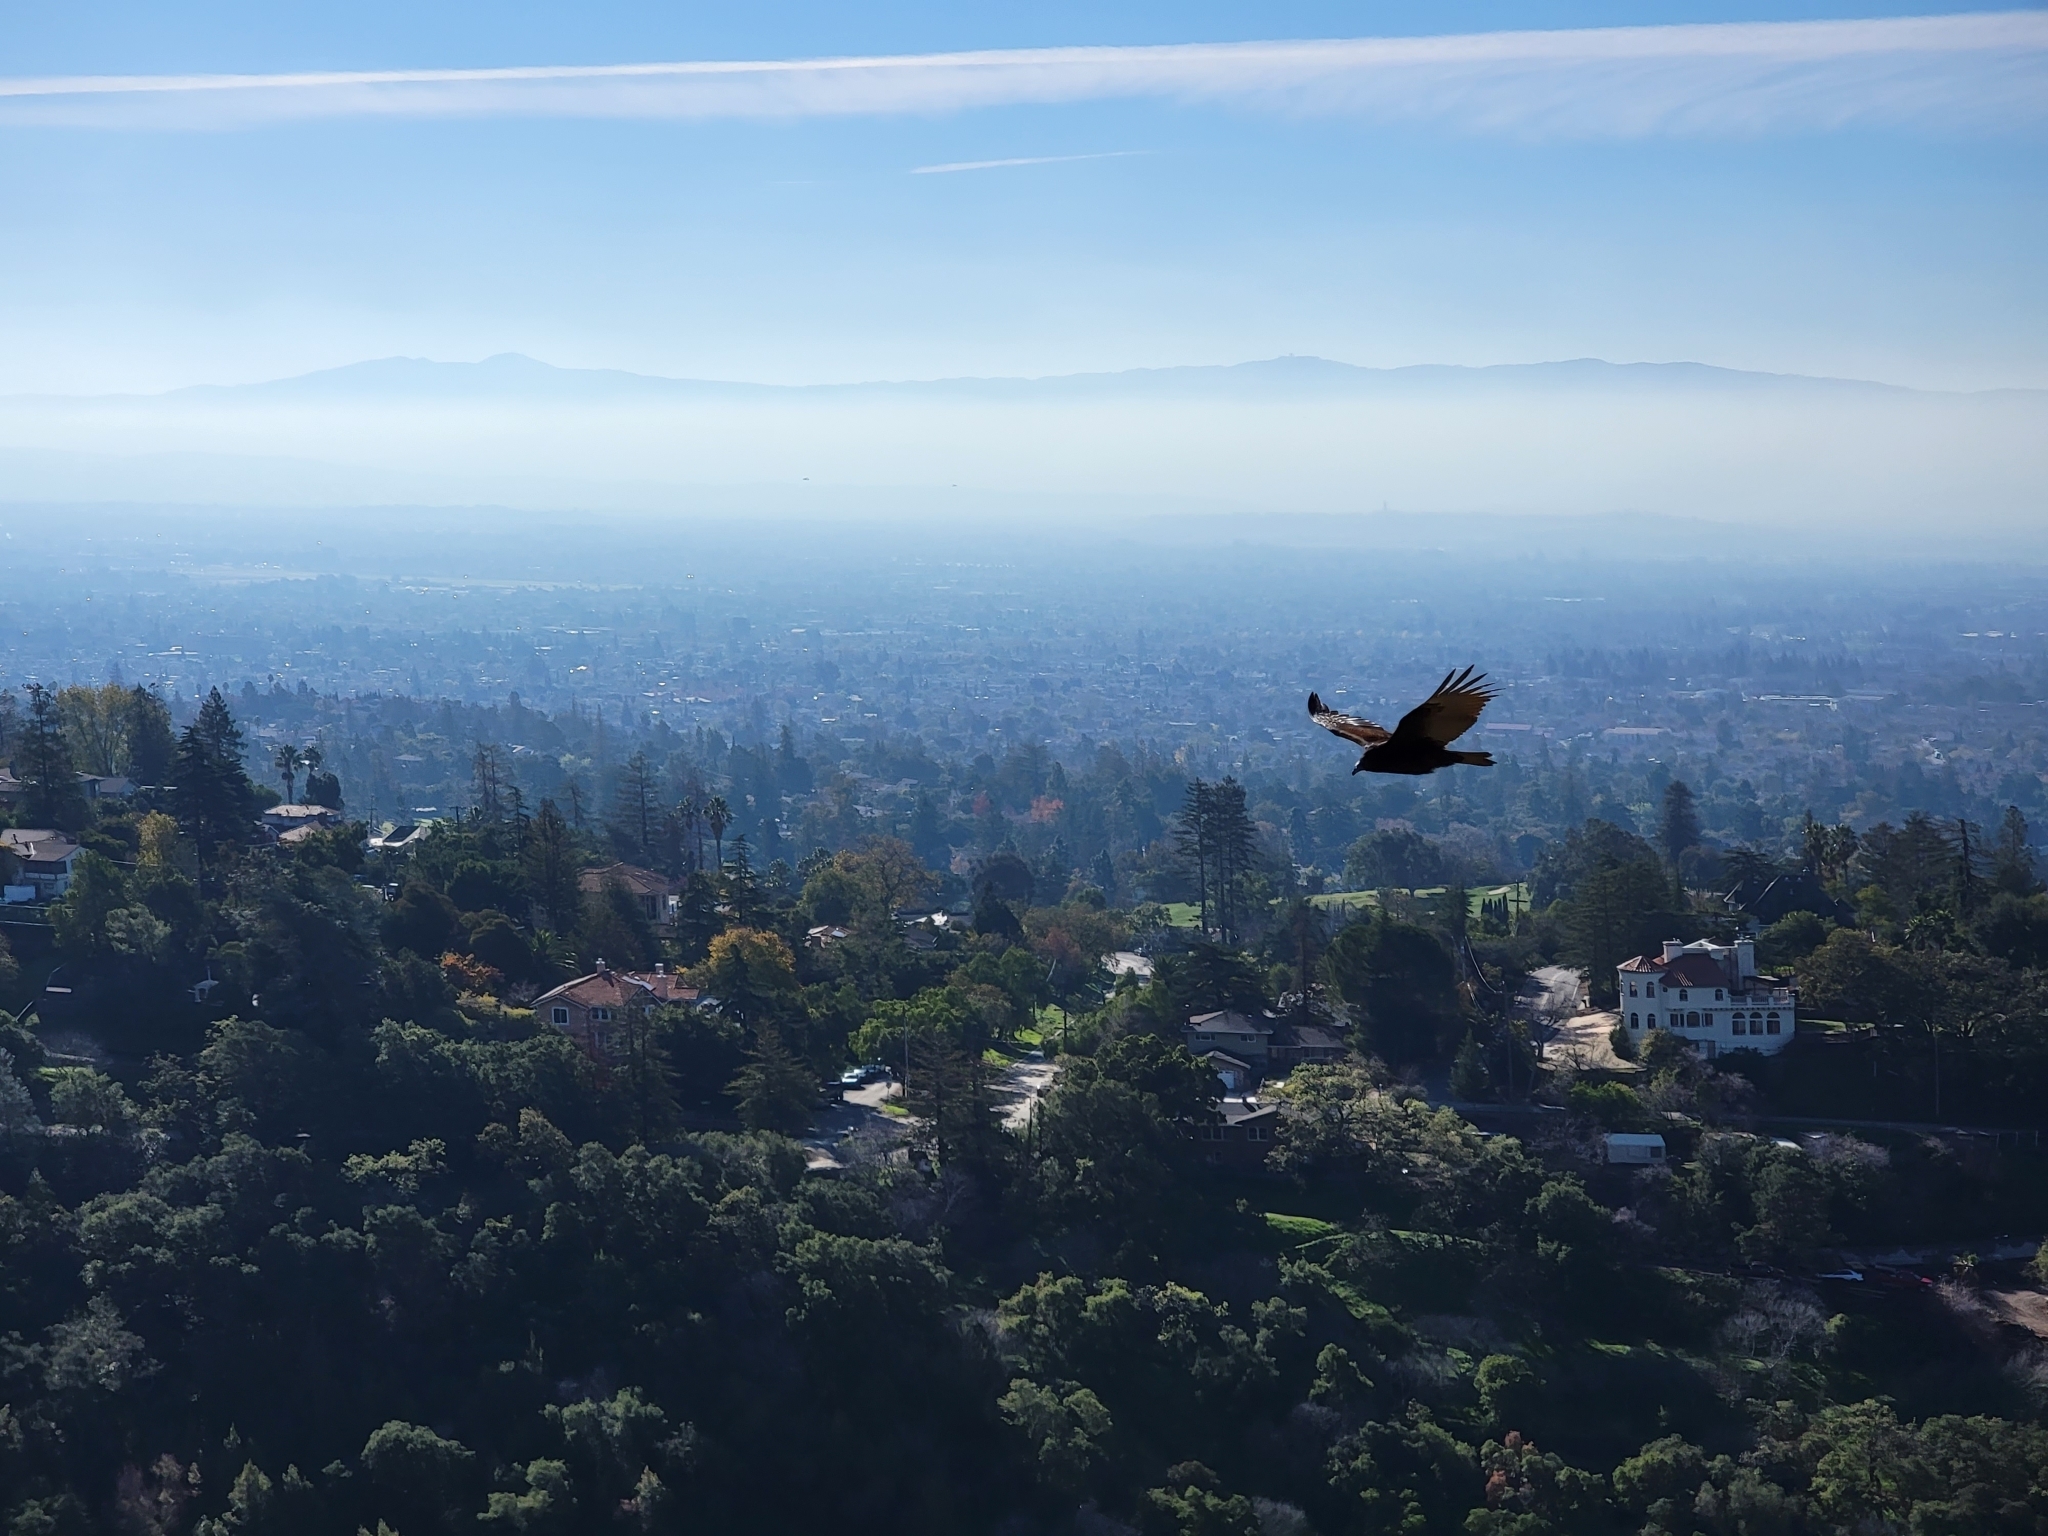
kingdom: Animalia
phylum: Chordata
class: Aves
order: Accipitriformes
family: Cathartidae
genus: Cathartes
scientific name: Cathartes aura
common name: Turkey vulture
